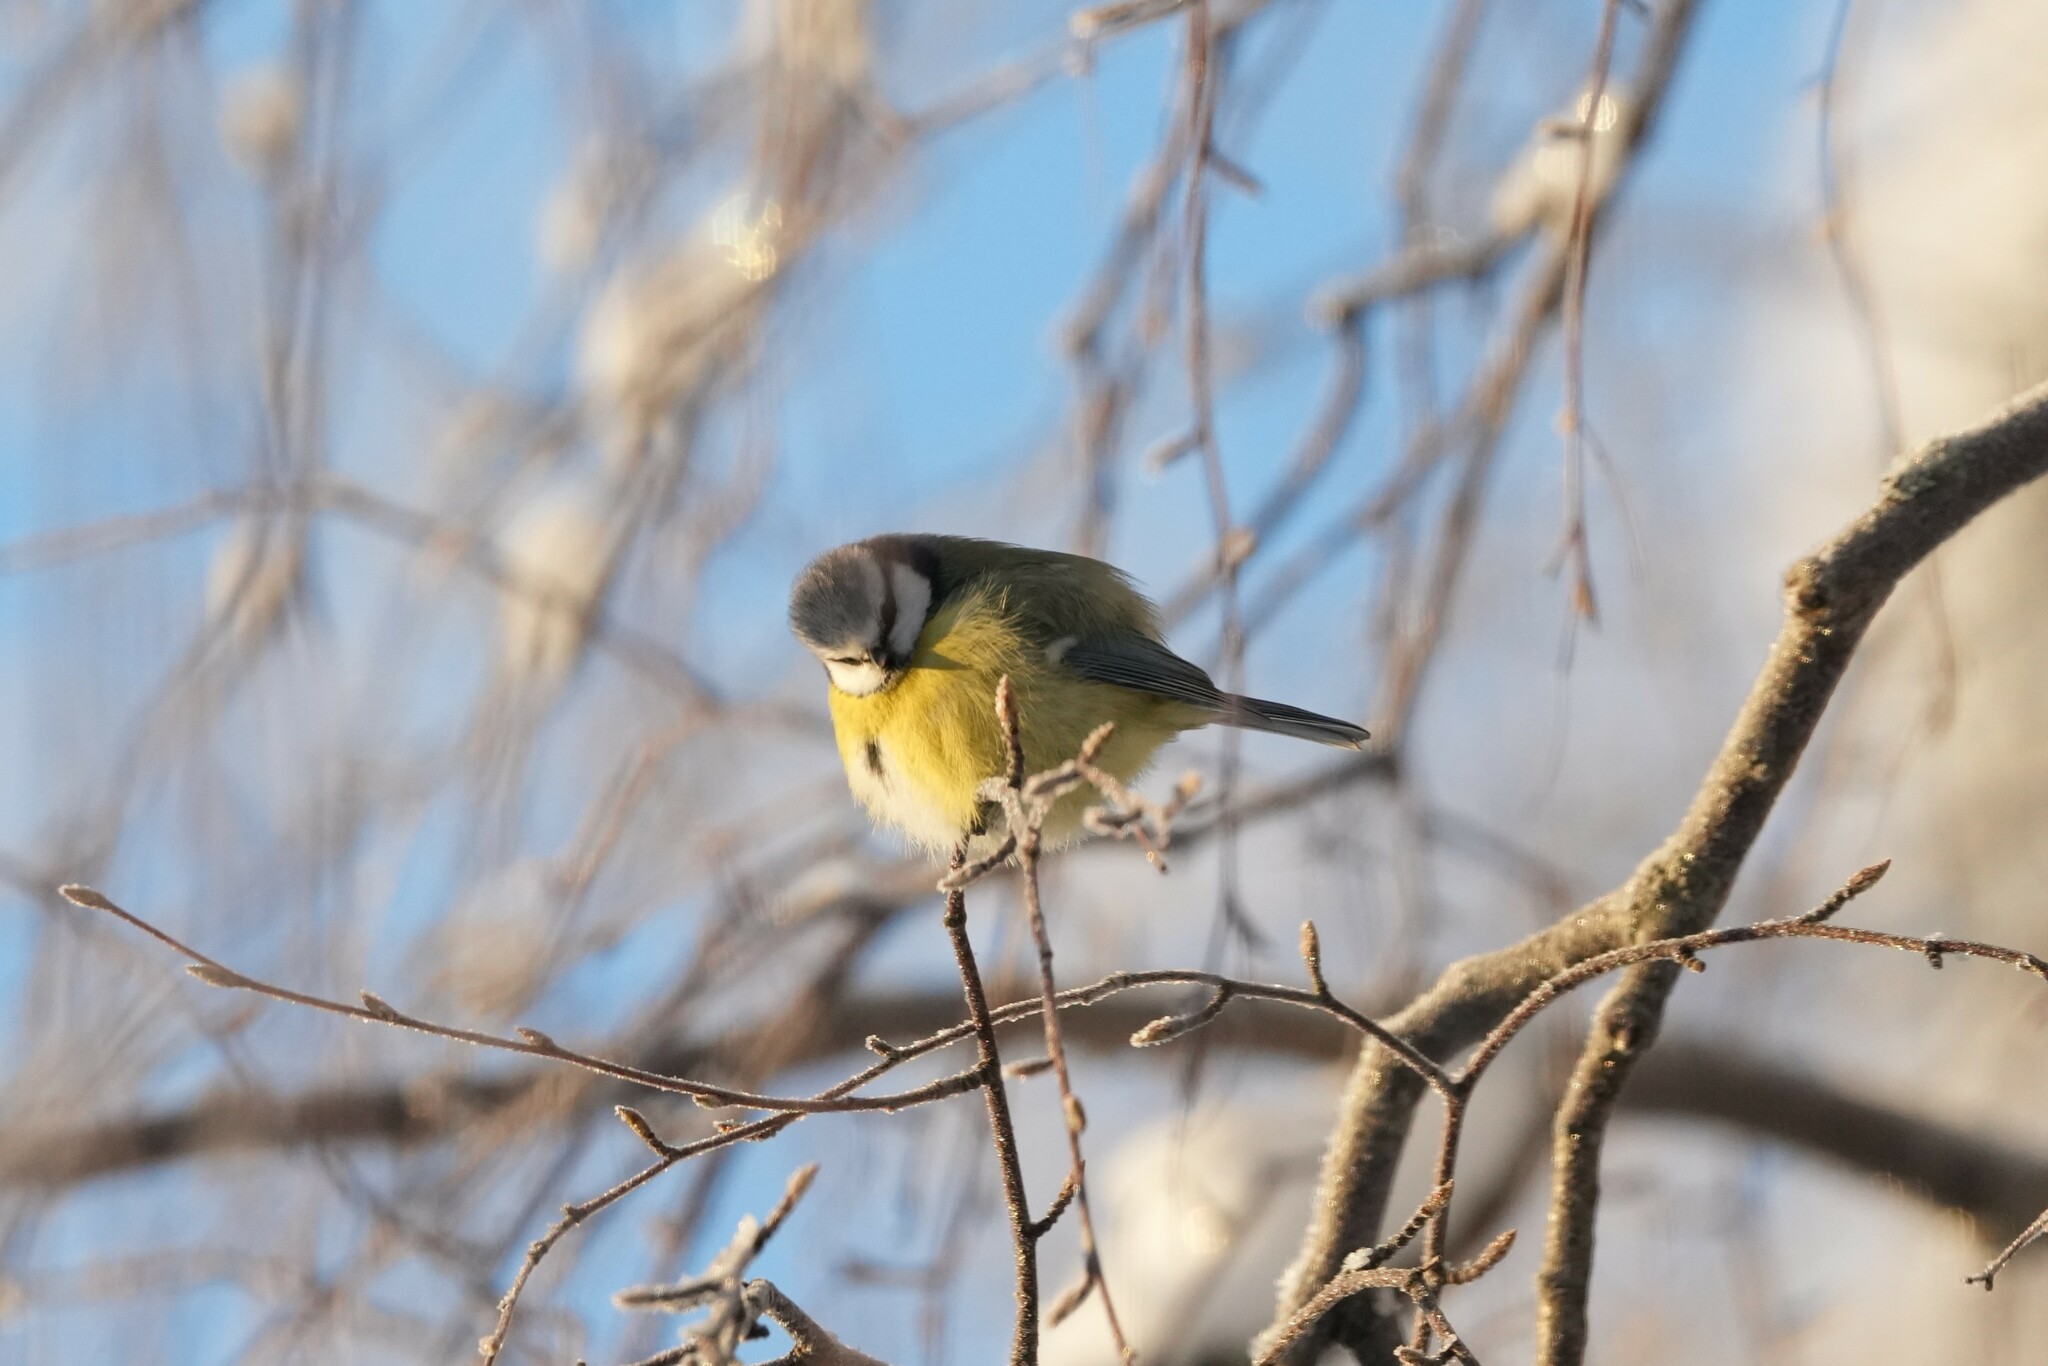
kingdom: Animalia
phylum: Chordata
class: Aves
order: Passeriformes
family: Paridae
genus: Cyanistes
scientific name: Cyanistes caeruleus
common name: Eurasian blue tit
